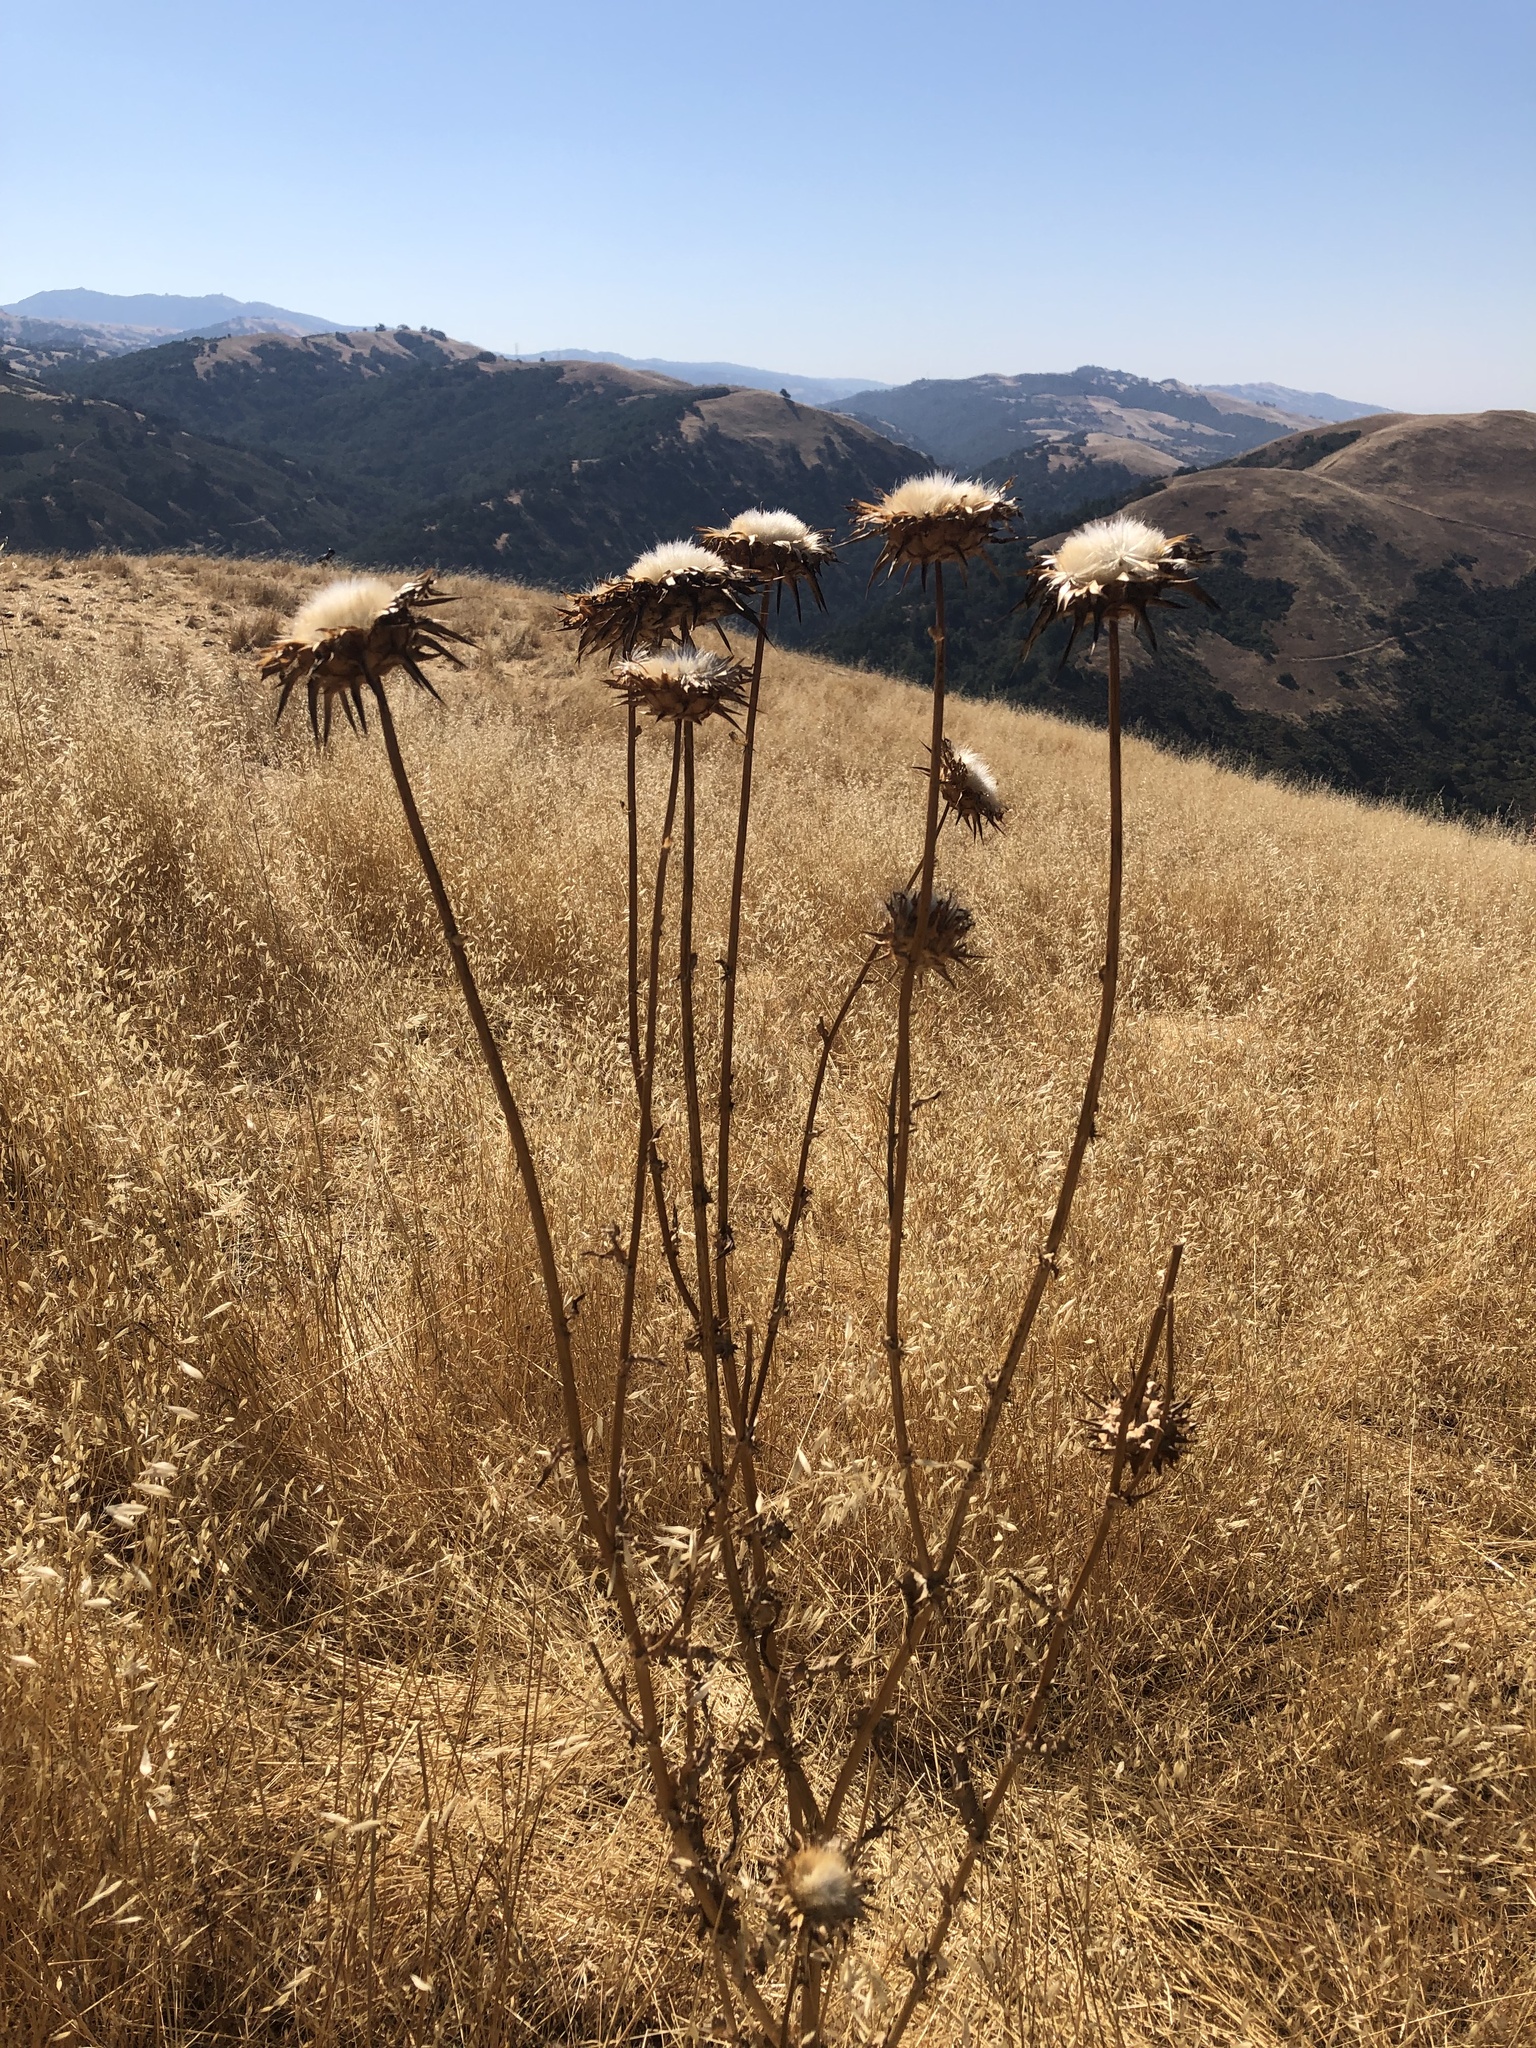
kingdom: Plantae
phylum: Tracheophyta
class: Magnoliopsida
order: Asterales
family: Asteraceae
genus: Silybum
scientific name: Silybum marianum
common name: Milk thistle
